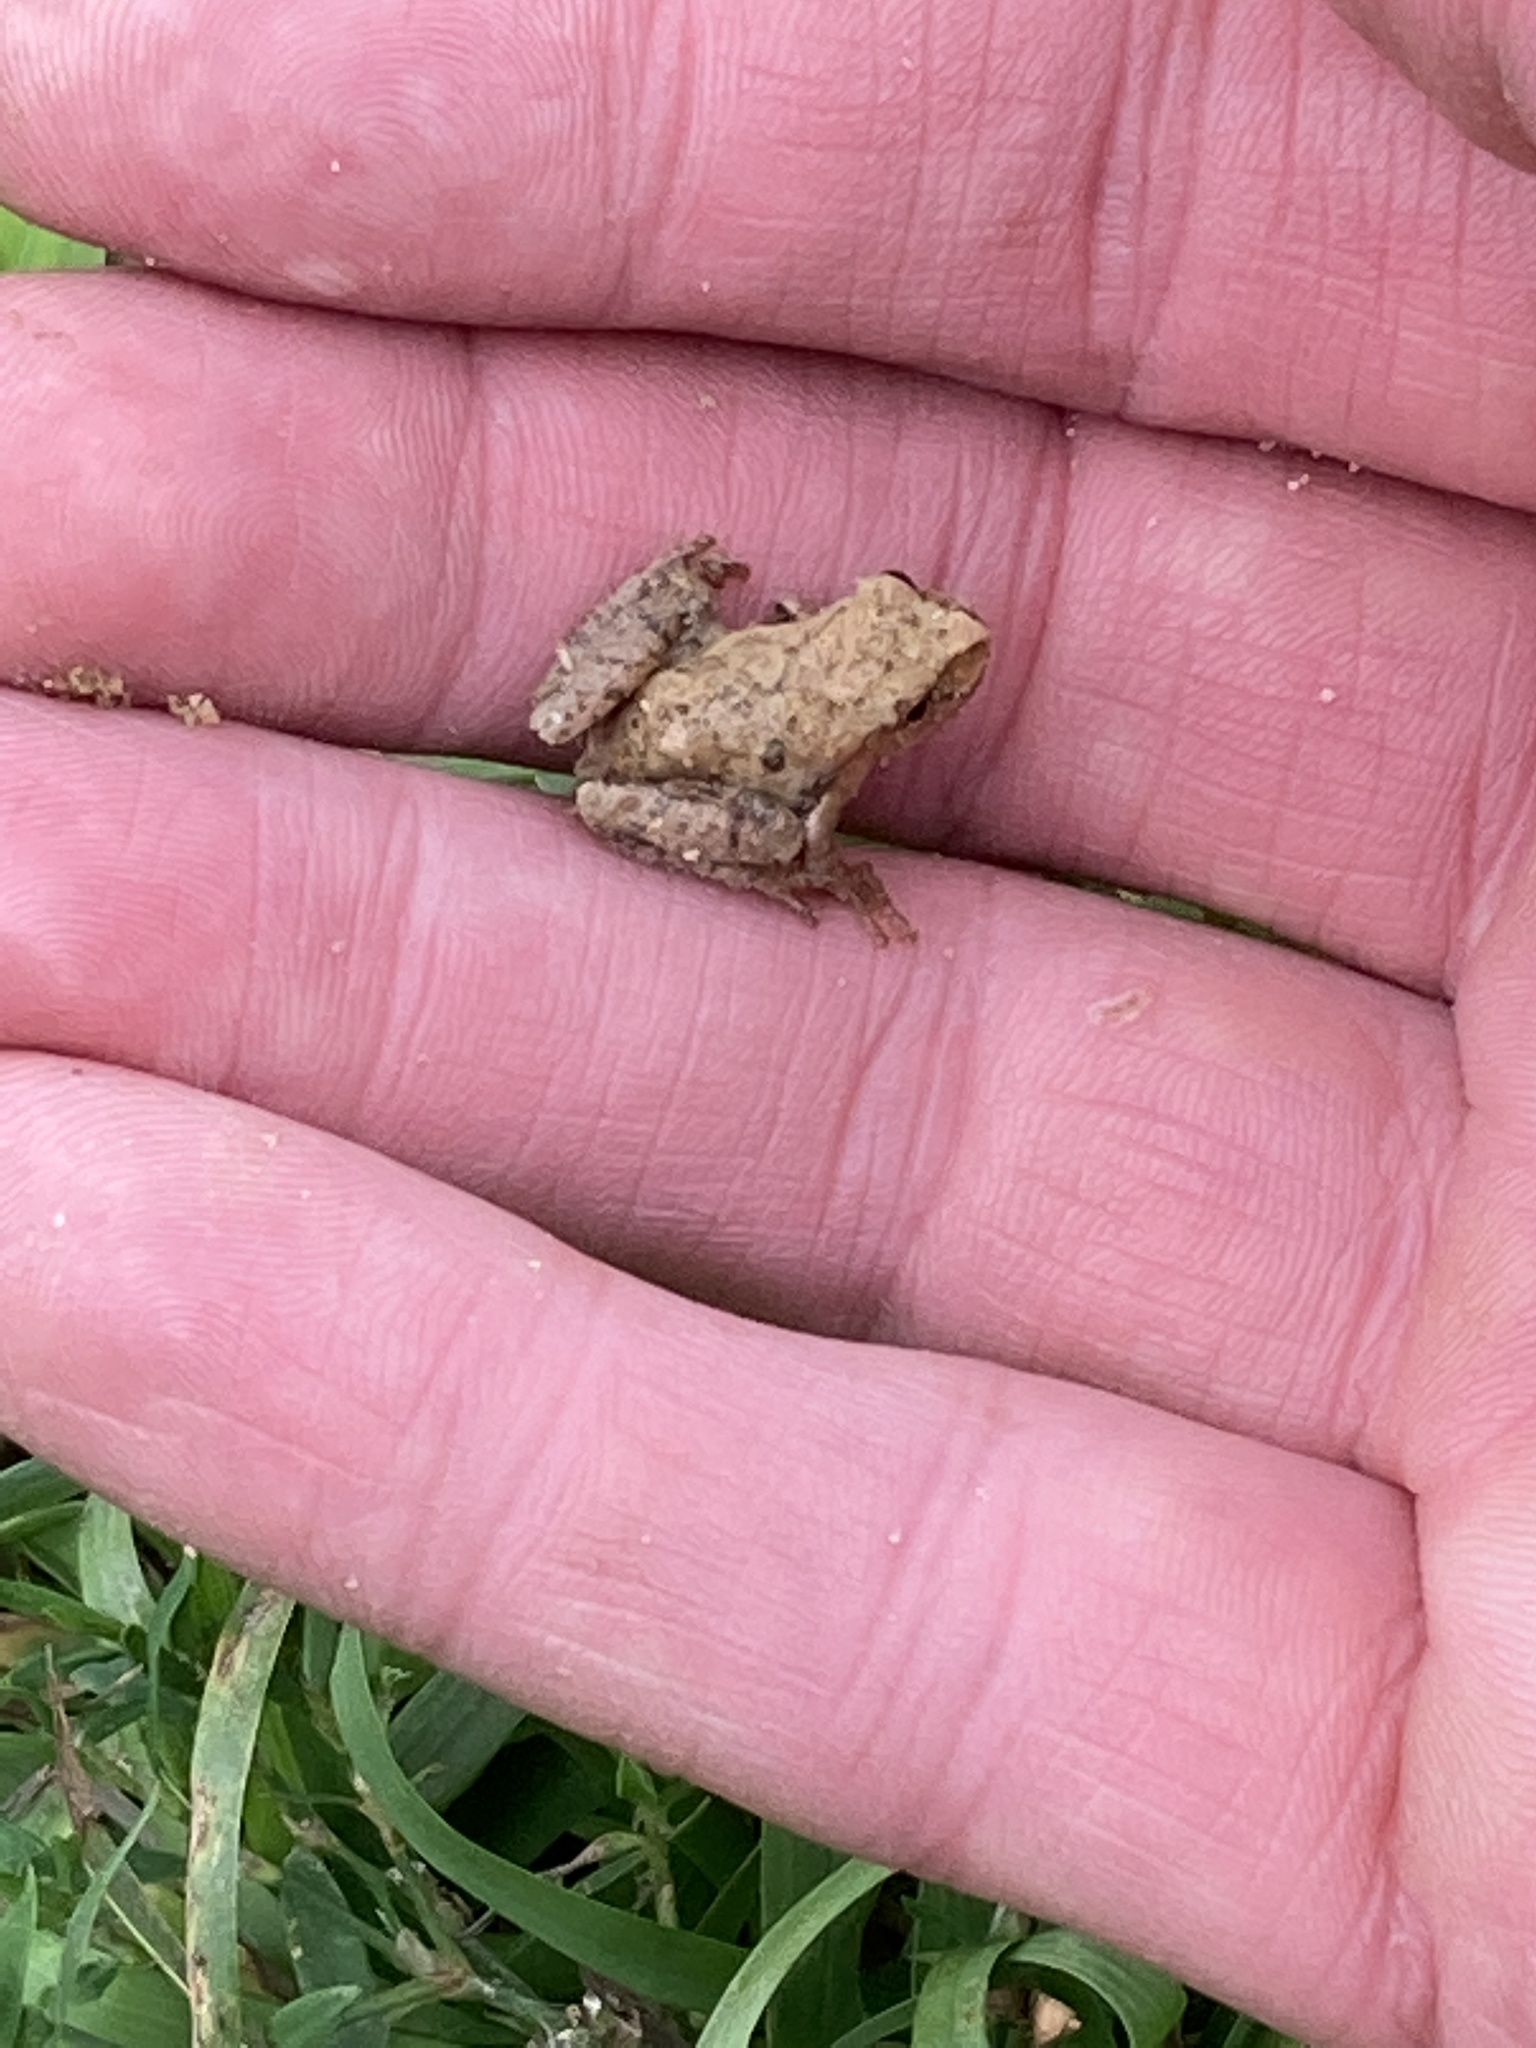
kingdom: Animalia
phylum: Chordata
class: Amphibia
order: Anura
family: Hylidae
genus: Pseudacris
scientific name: Pseudacris crucifer
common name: Spring peeper
